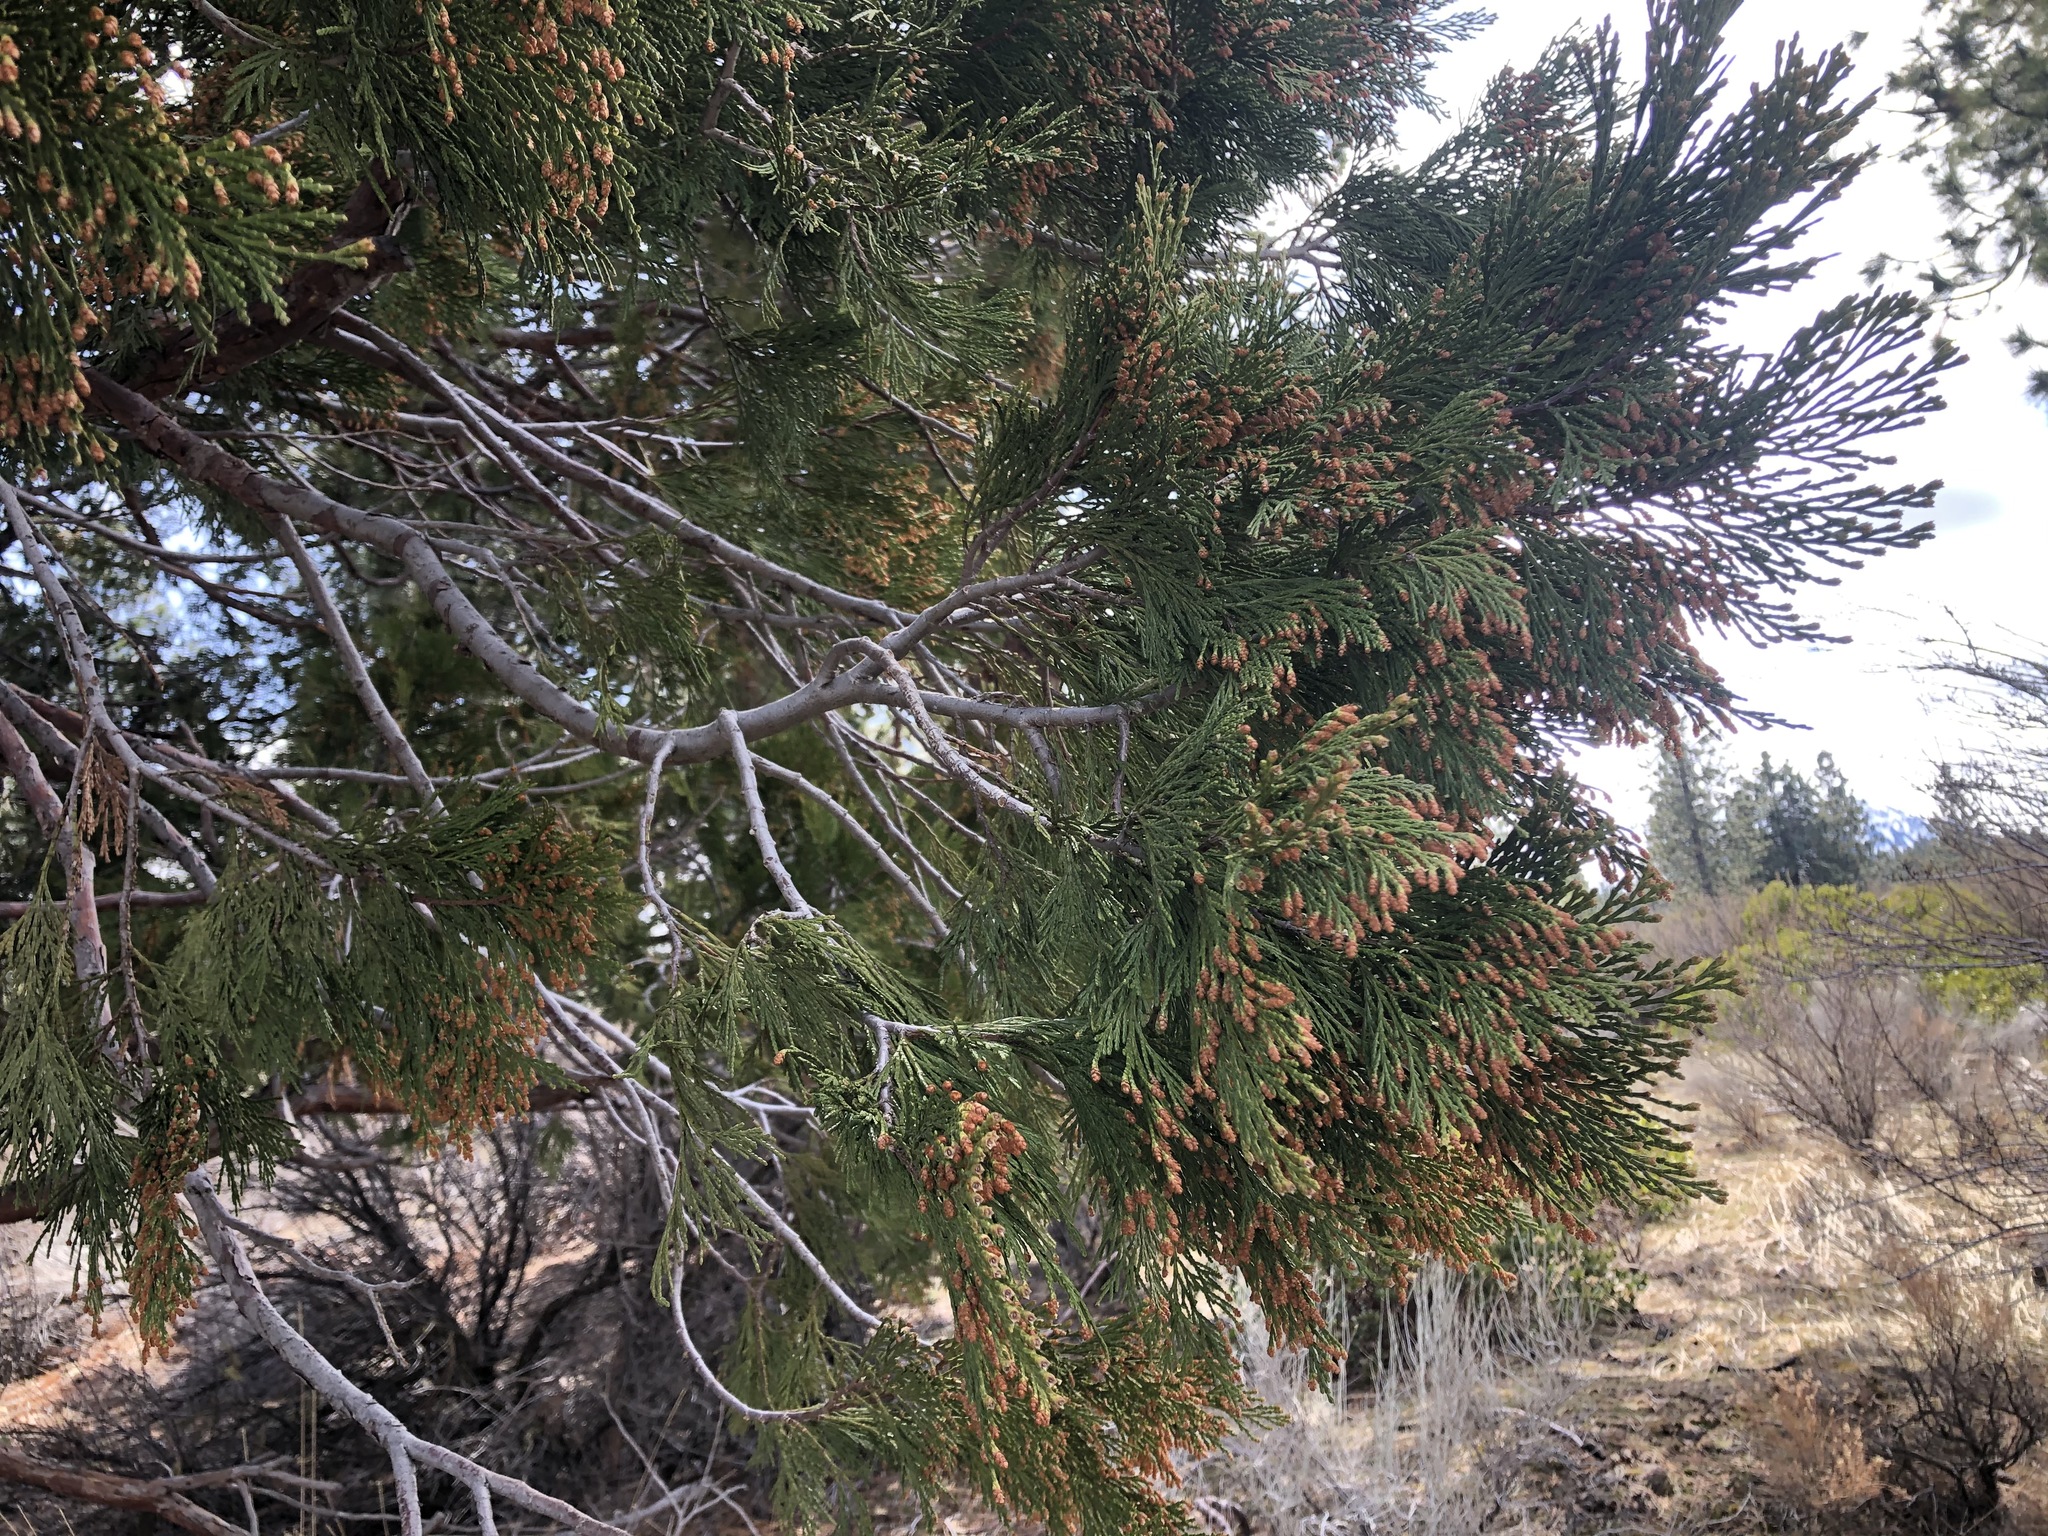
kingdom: Plantae
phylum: Tracheophyta
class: Pinopsida
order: Pinales
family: Cupressaceae
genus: Calocedrus
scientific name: Calocedrus decurrens
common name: Californian incense-cedar
